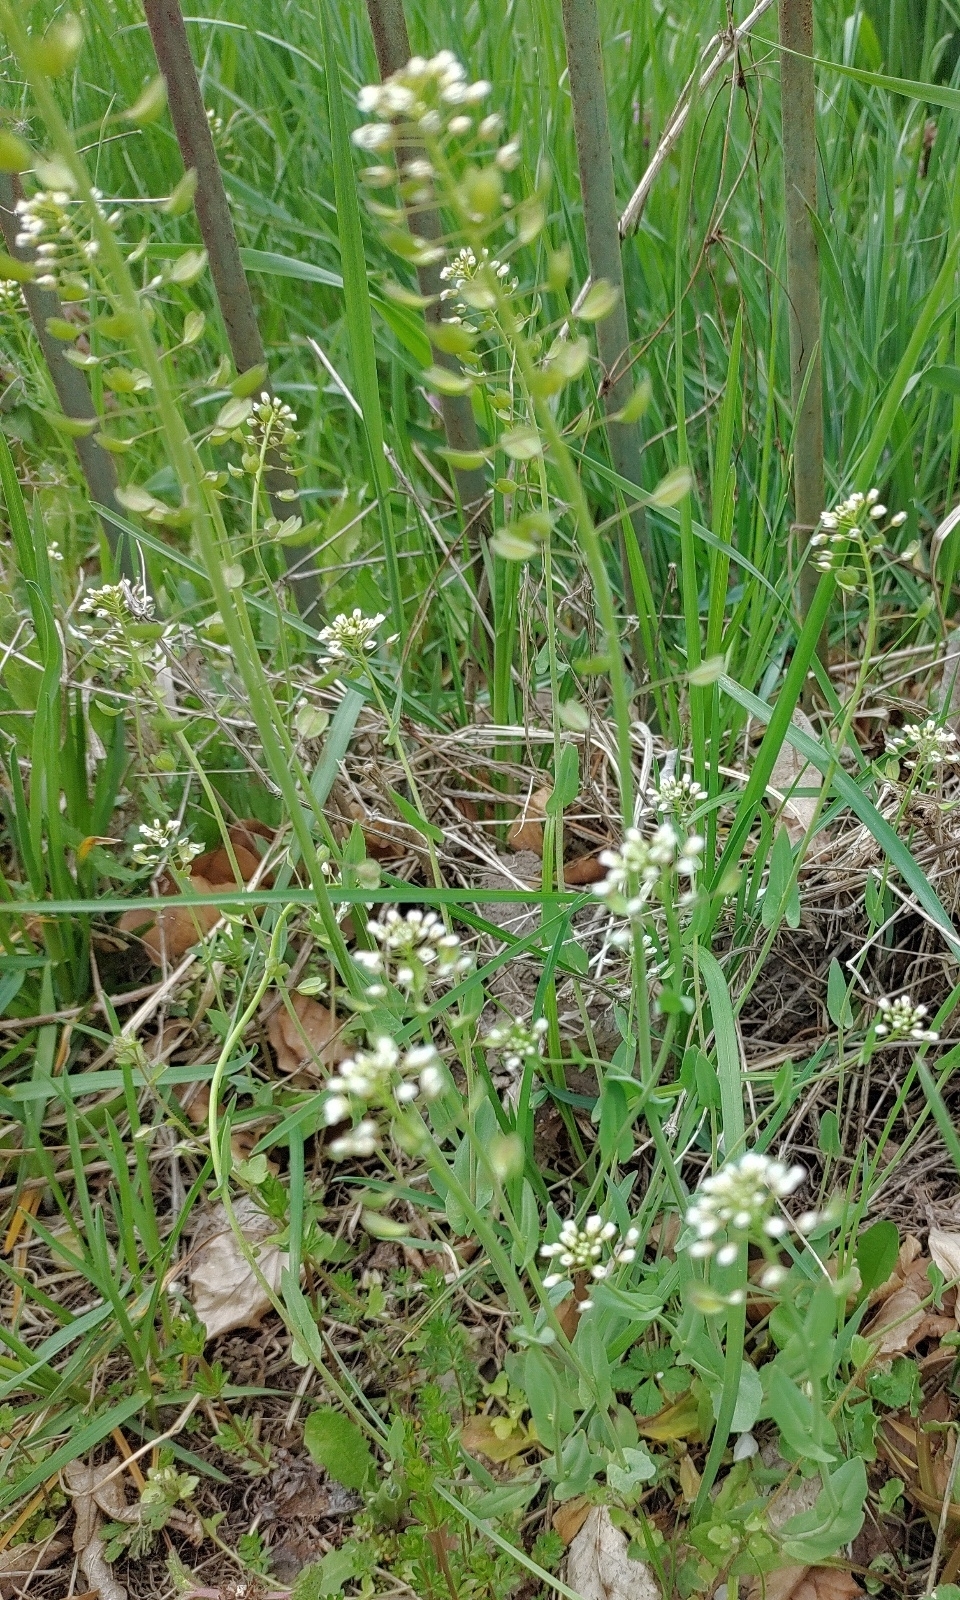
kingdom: Plantae
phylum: Tracheophyta
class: Magnoliopsida
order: Brassicales
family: Brassicaceae
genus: Capsella
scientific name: Capsella bursa-pastoris
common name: Shepherd's purse
